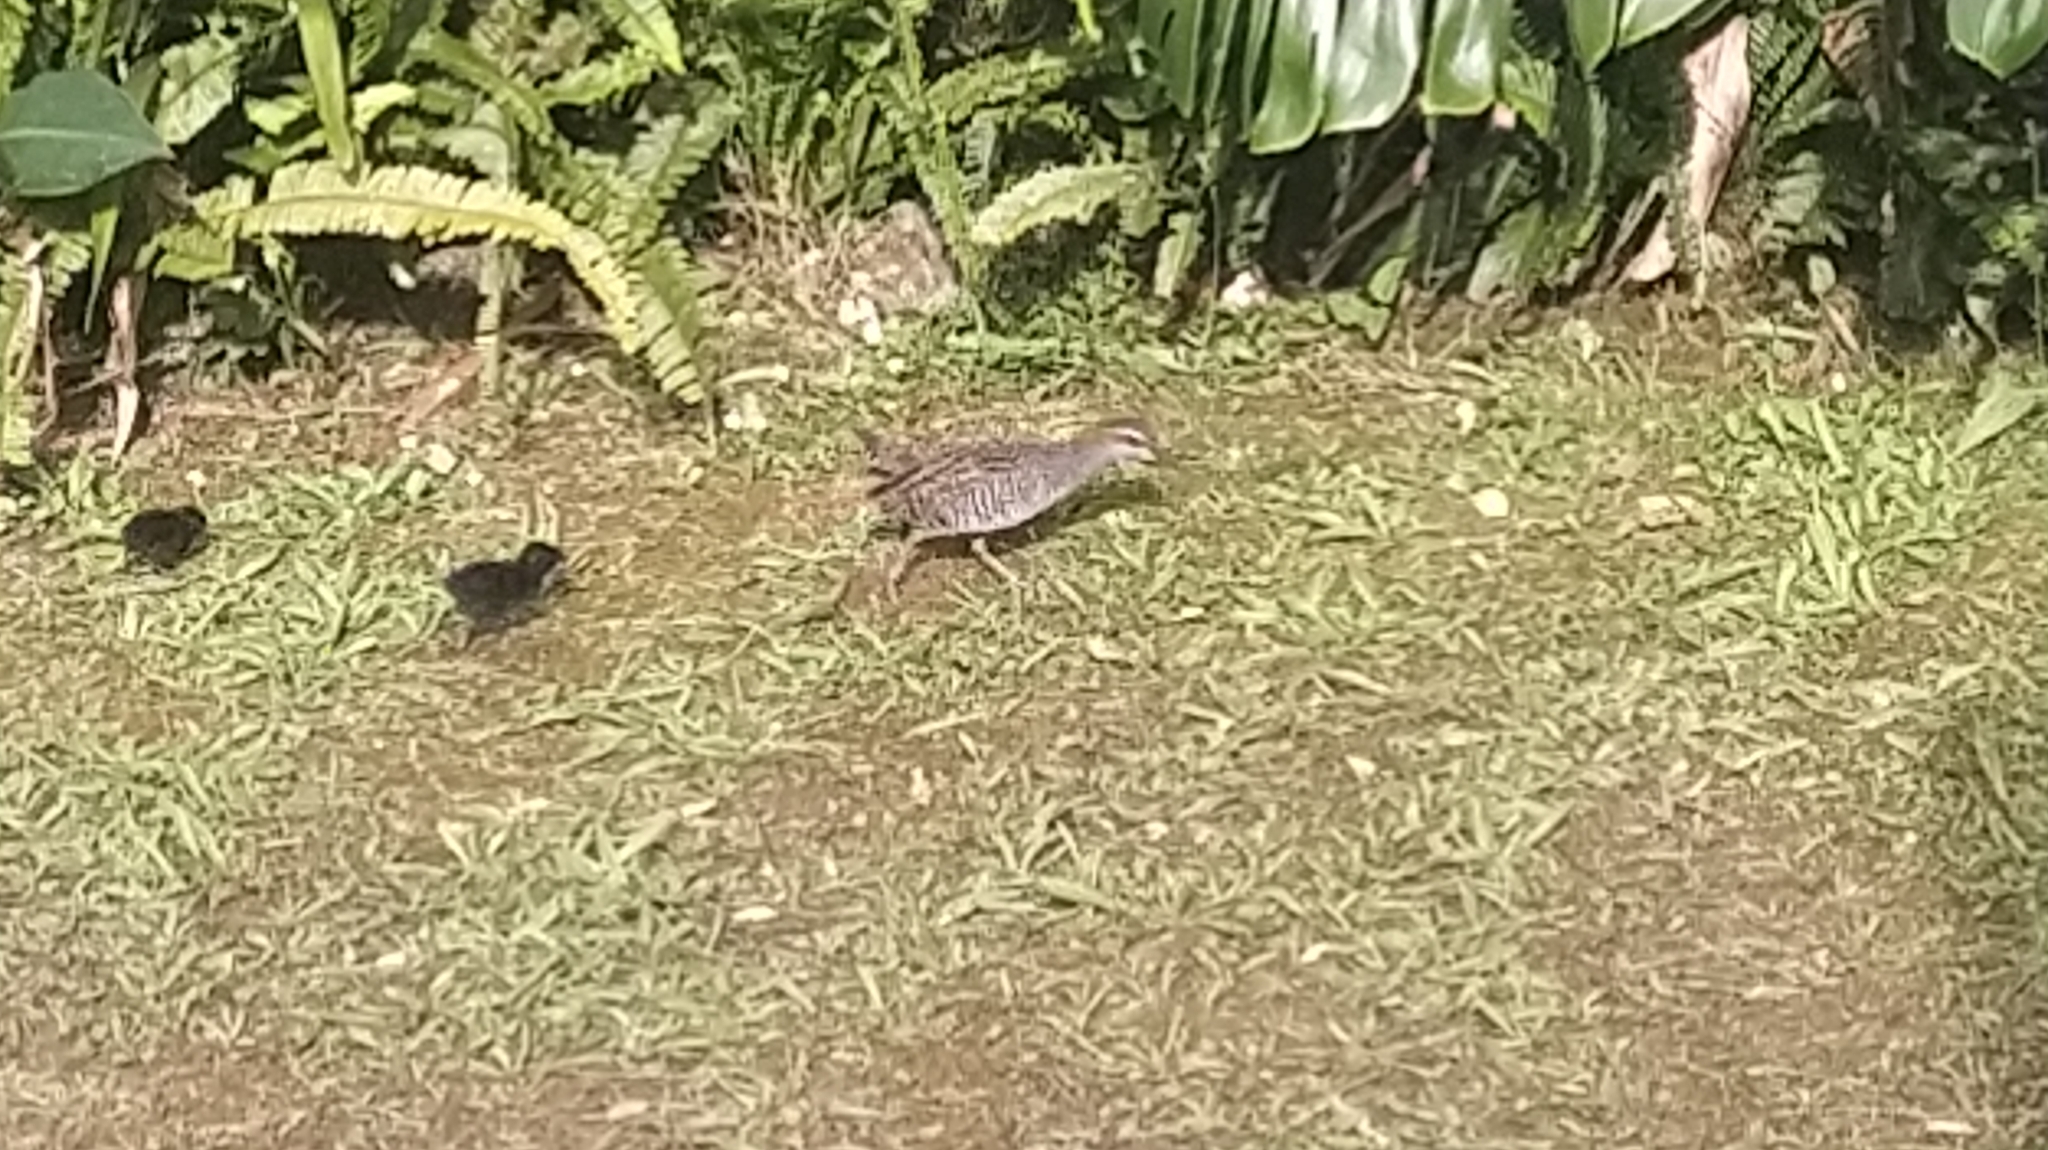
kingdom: Animalia
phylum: Chordata
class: Aves
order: Gruiformes
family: Rallidae
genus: Gallirallus
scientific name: Gallirallus philippensis
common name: Buff-banded rail
